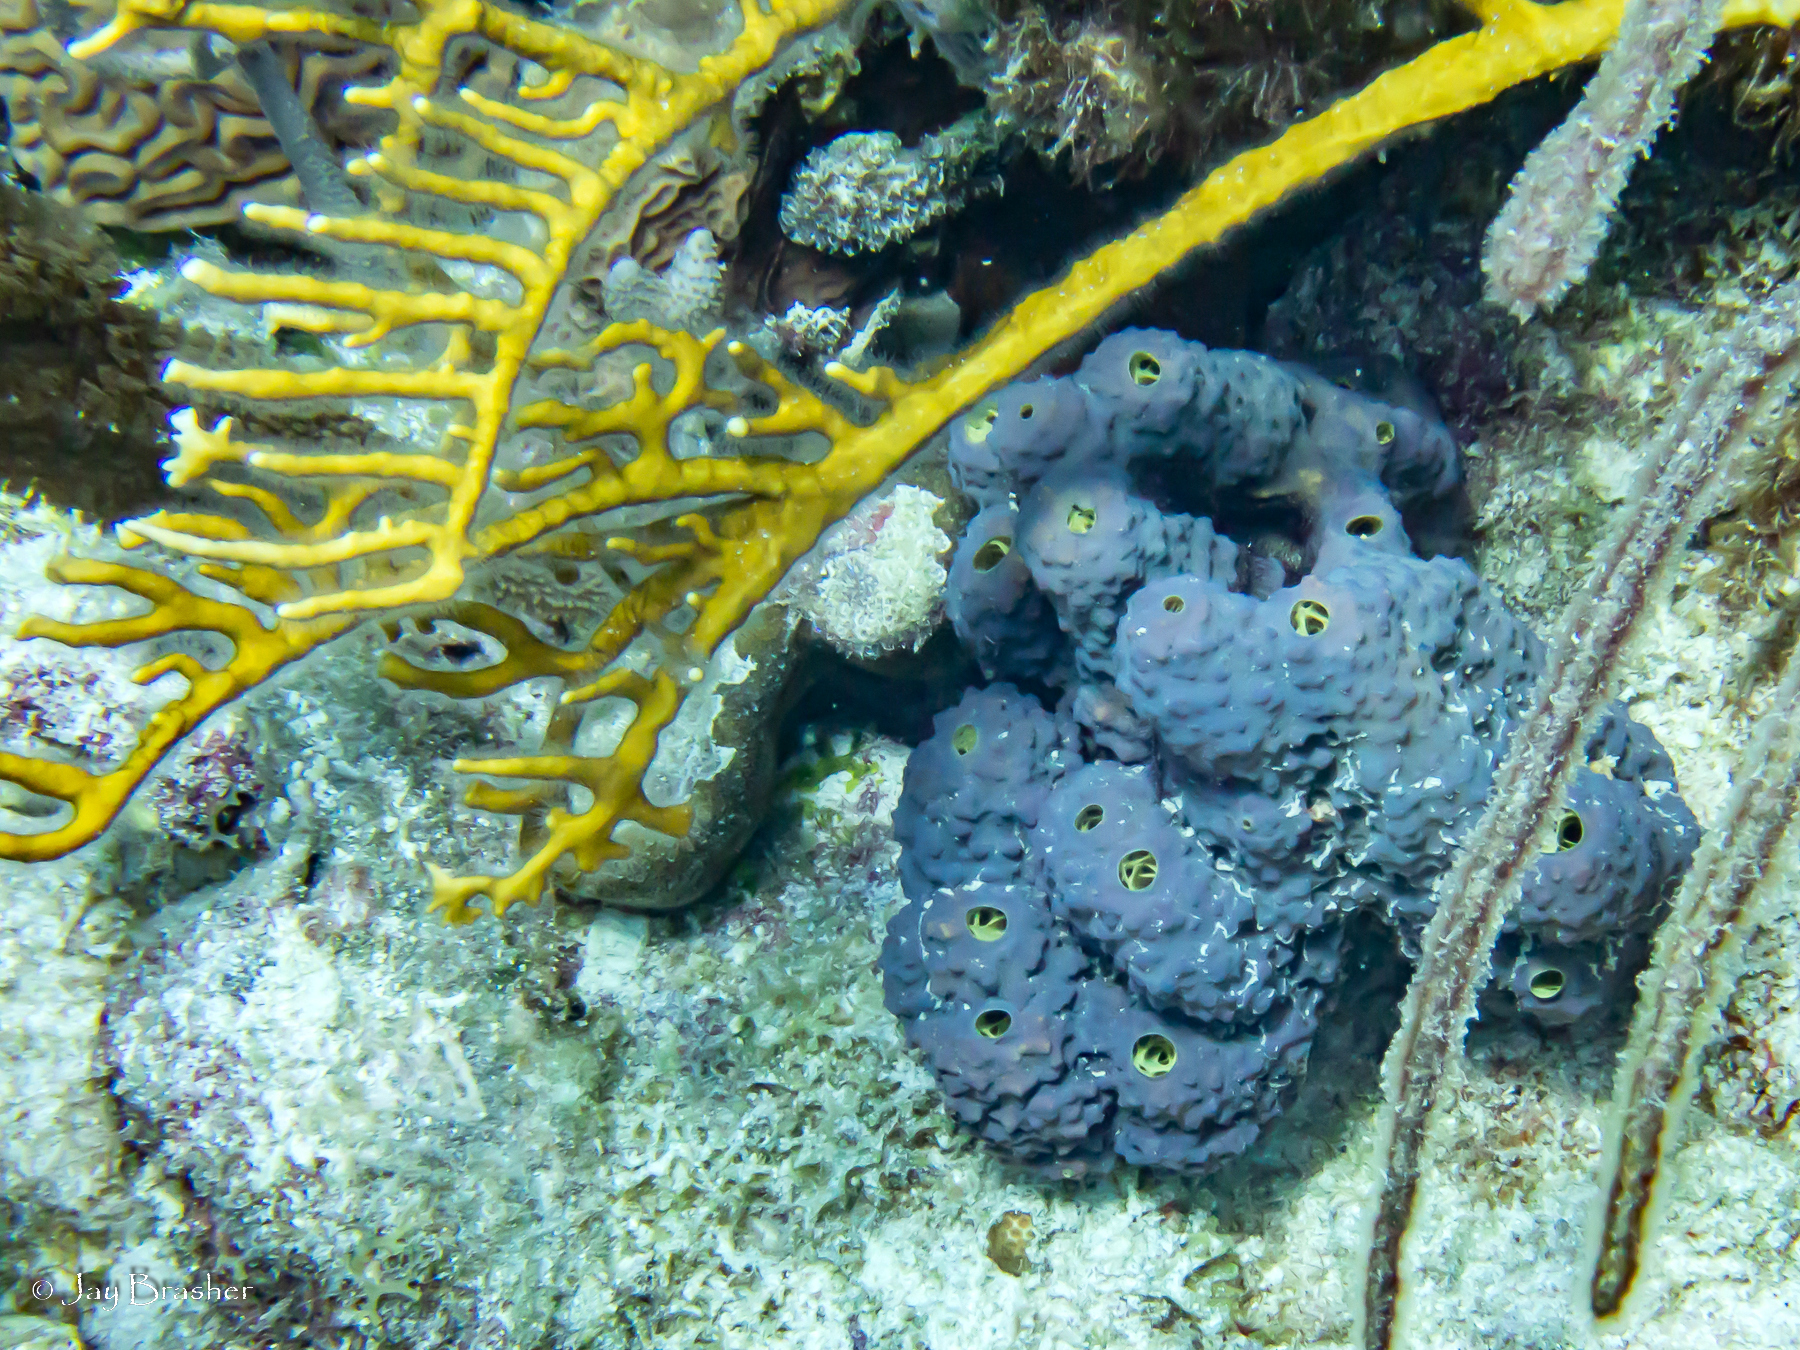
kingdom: Animalia
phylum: Porifera
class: Demospongiae
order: Verongiida
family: Aplysinidae
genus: Aiolochroia
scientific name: Aiolochroia crassa
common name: Branching tube sponge
